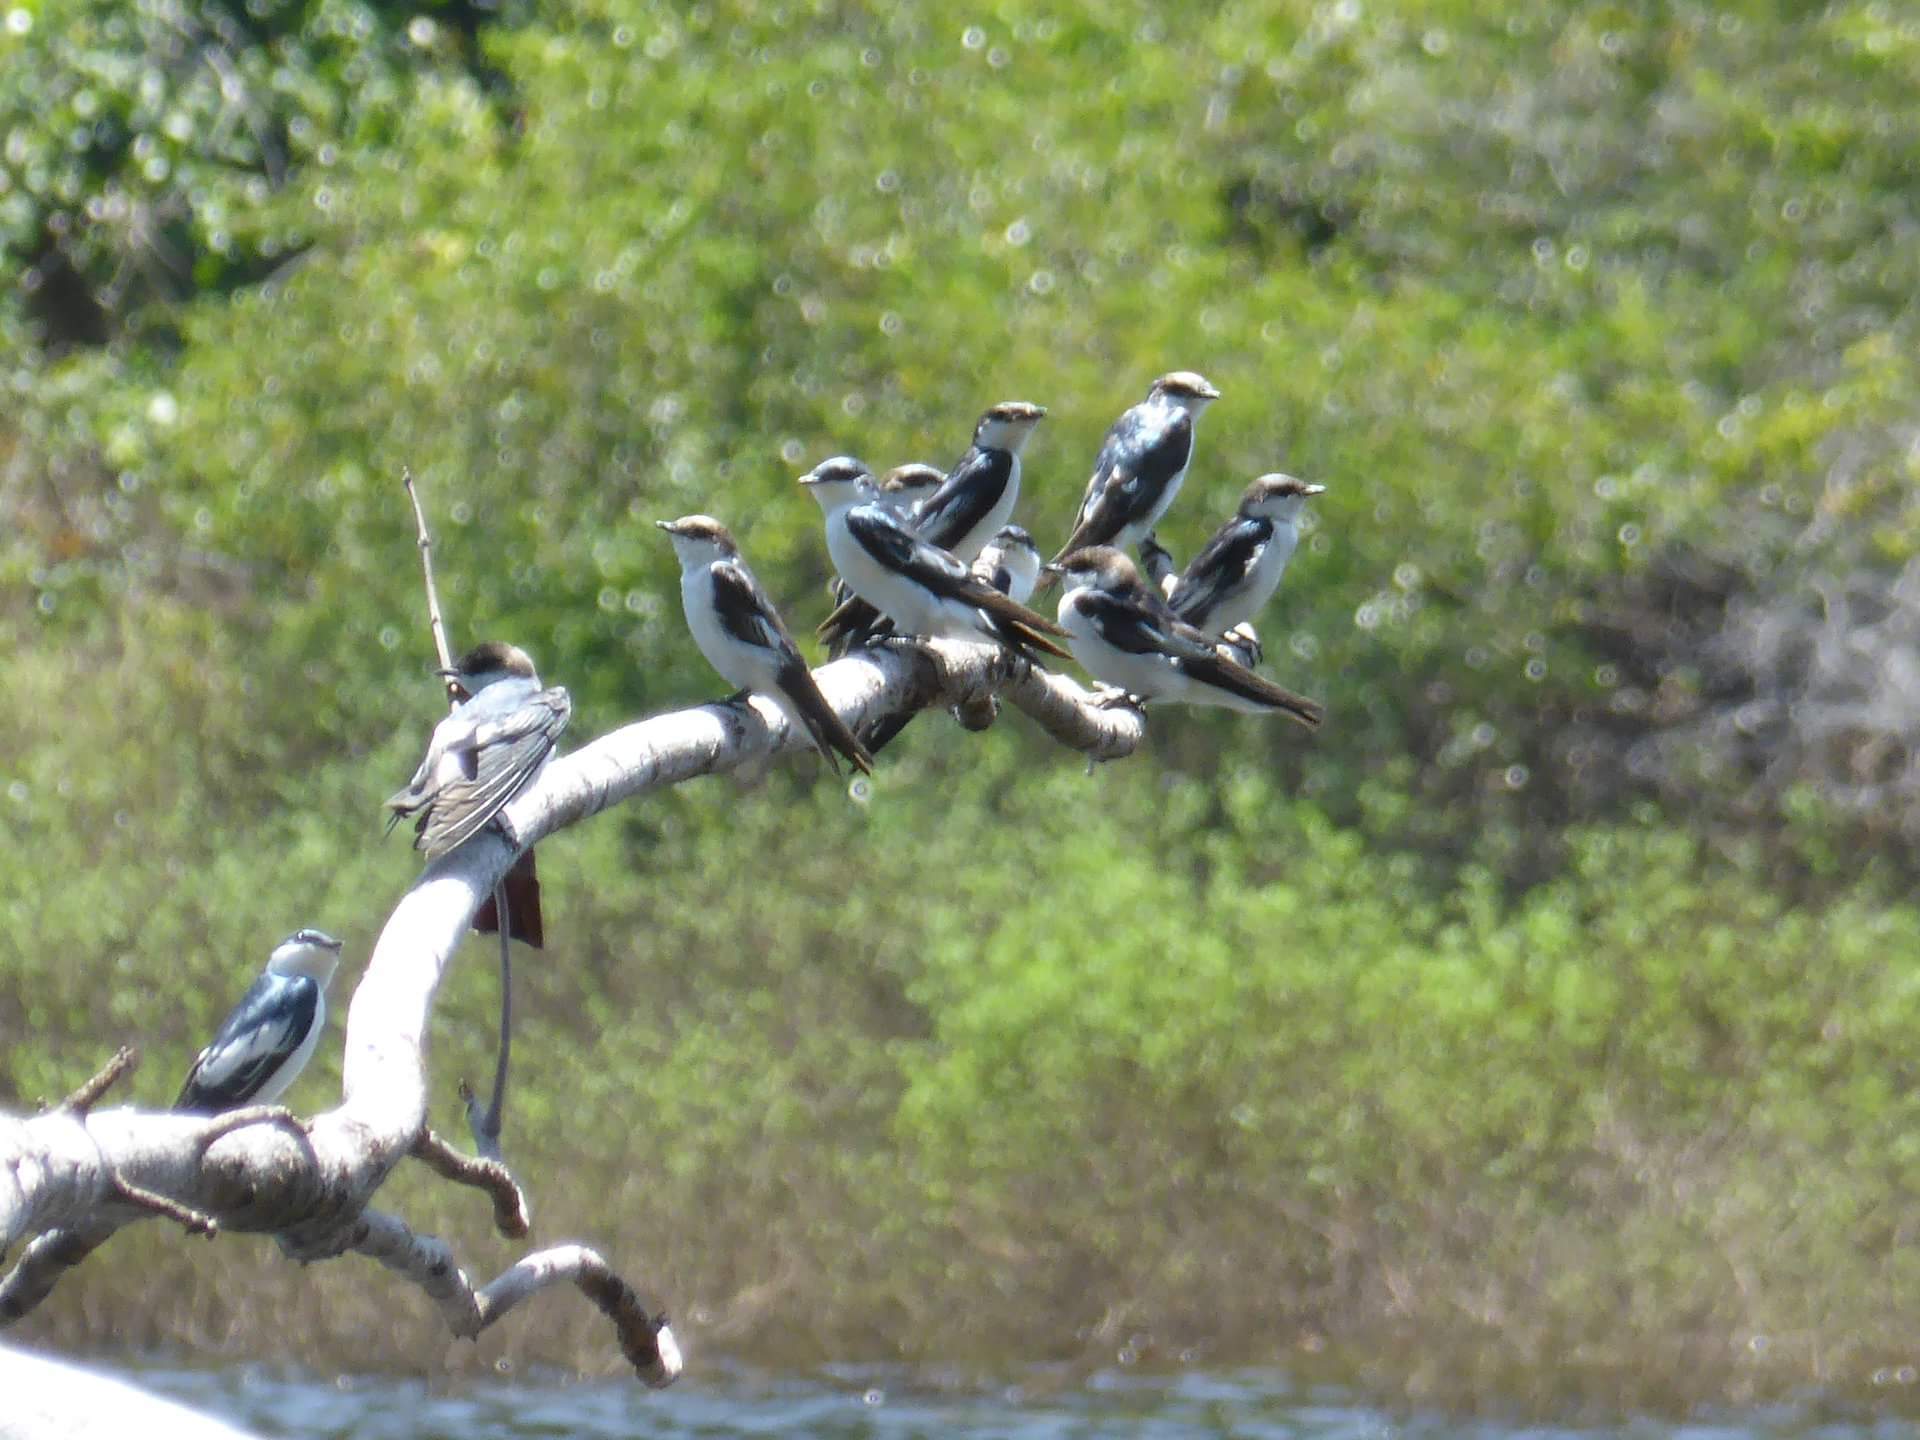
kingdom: Animalia
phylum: Chordata
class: Aves
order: Passeriformes
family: Hirundinidae
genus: Tachycineta
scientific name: Tachycineta albiventer
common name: White-winged swallow
